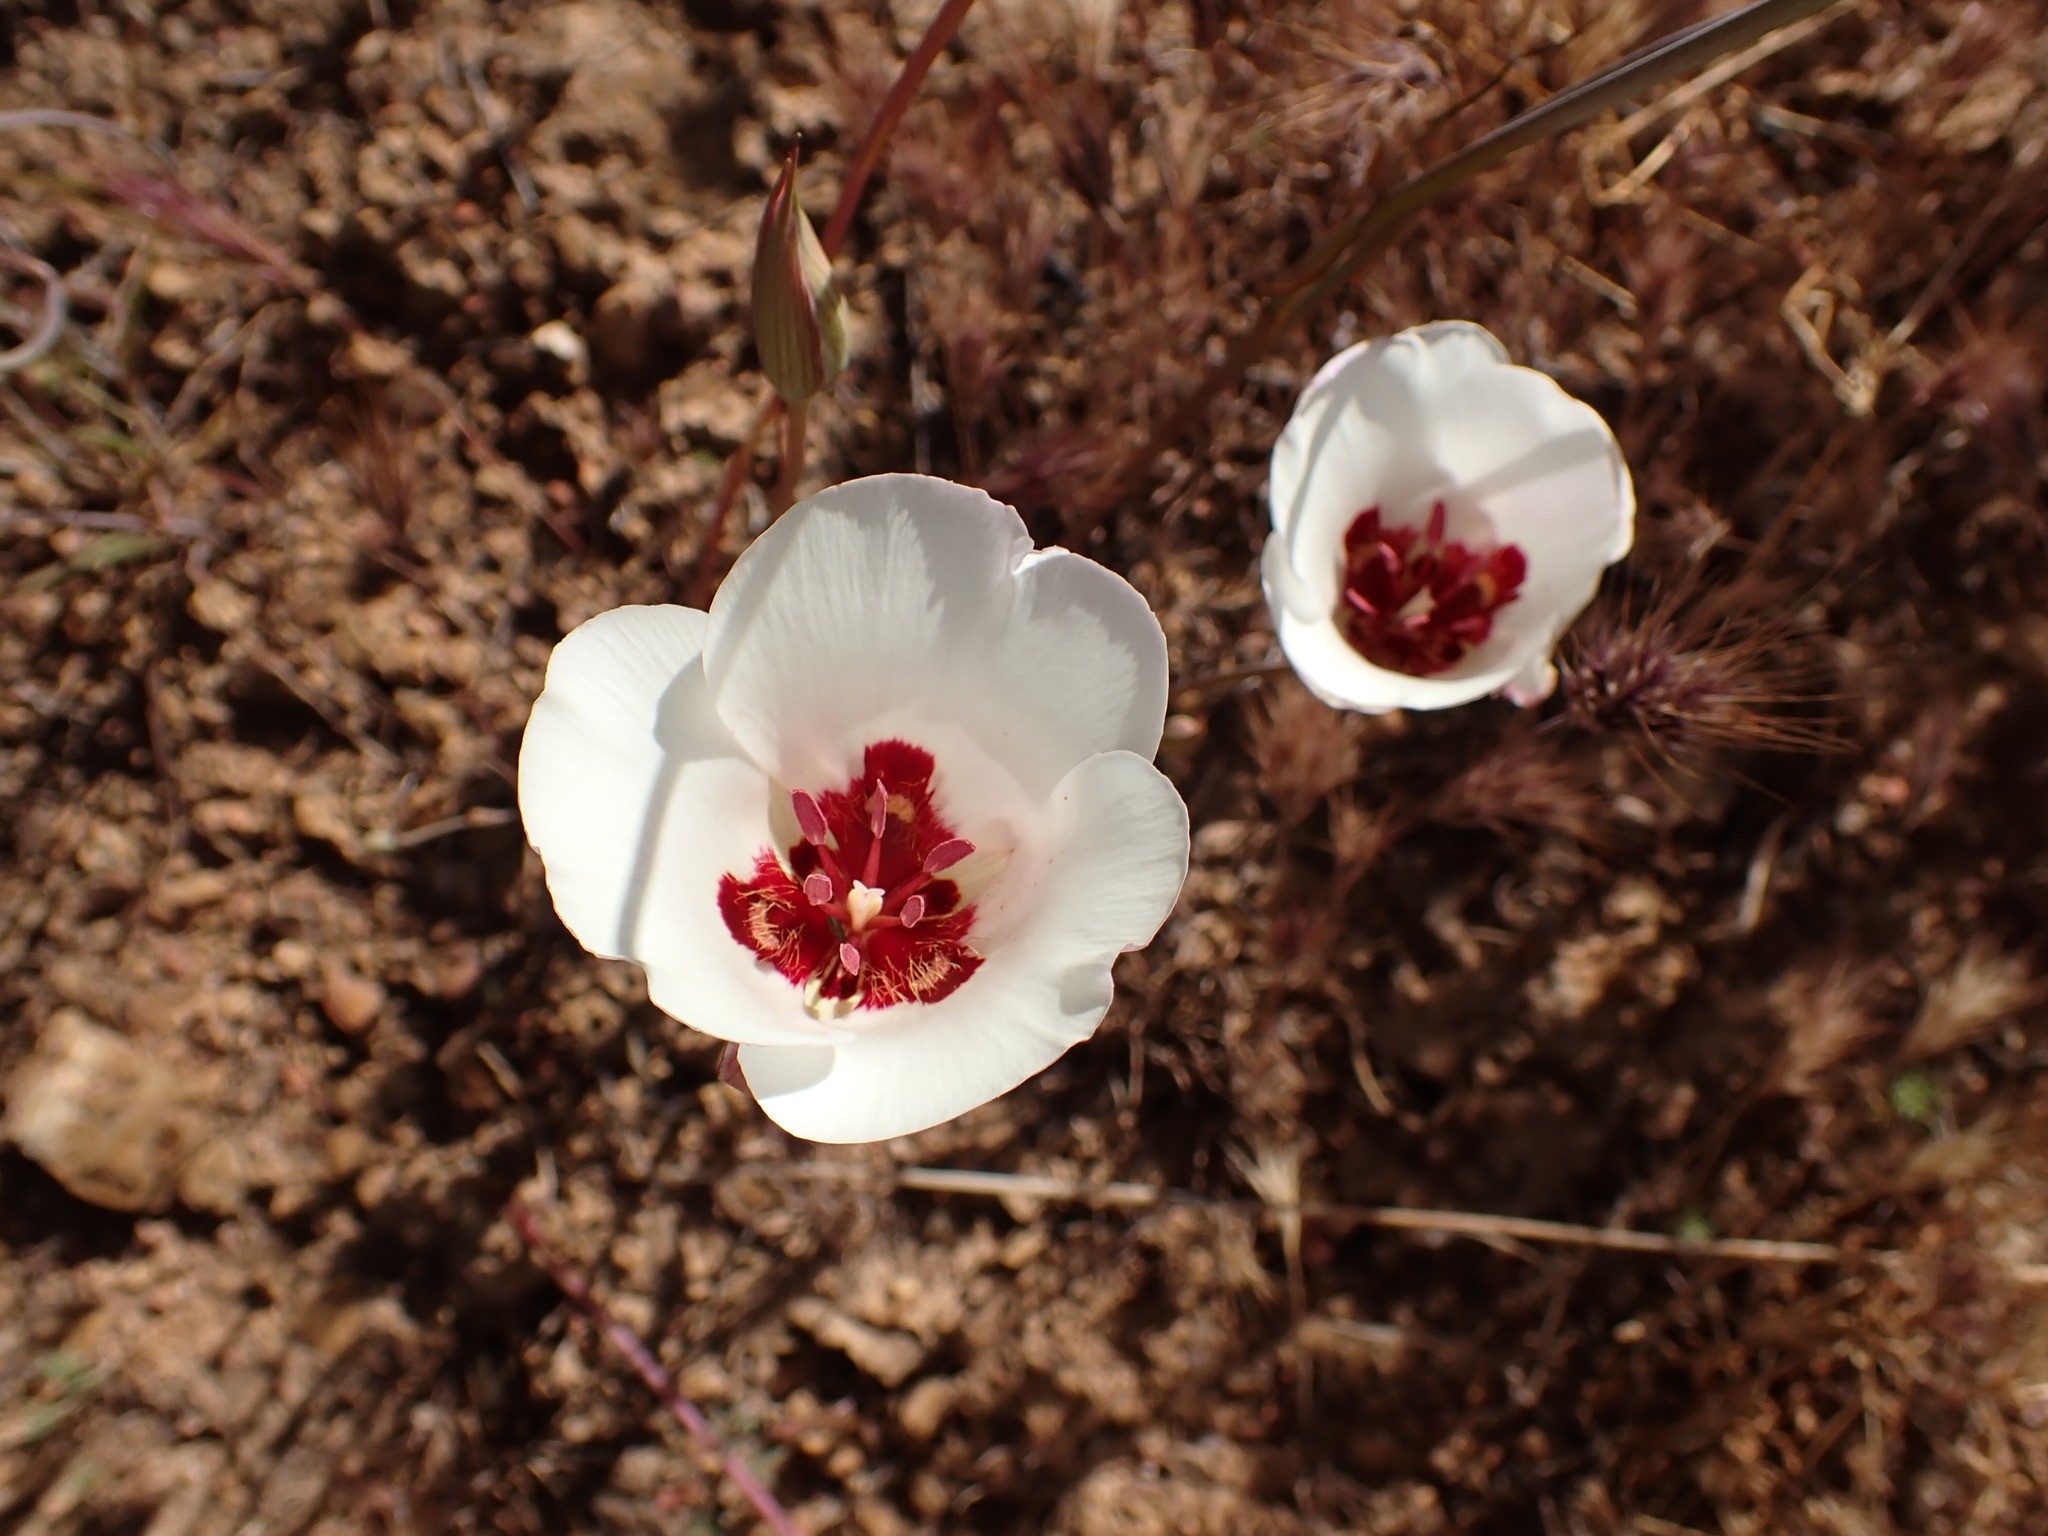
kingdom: Plantae
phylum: Tracheophyta
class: Liliopsida
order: Liliales
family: Liliaceae
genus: Calochortus
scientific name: Calochortus simulans
